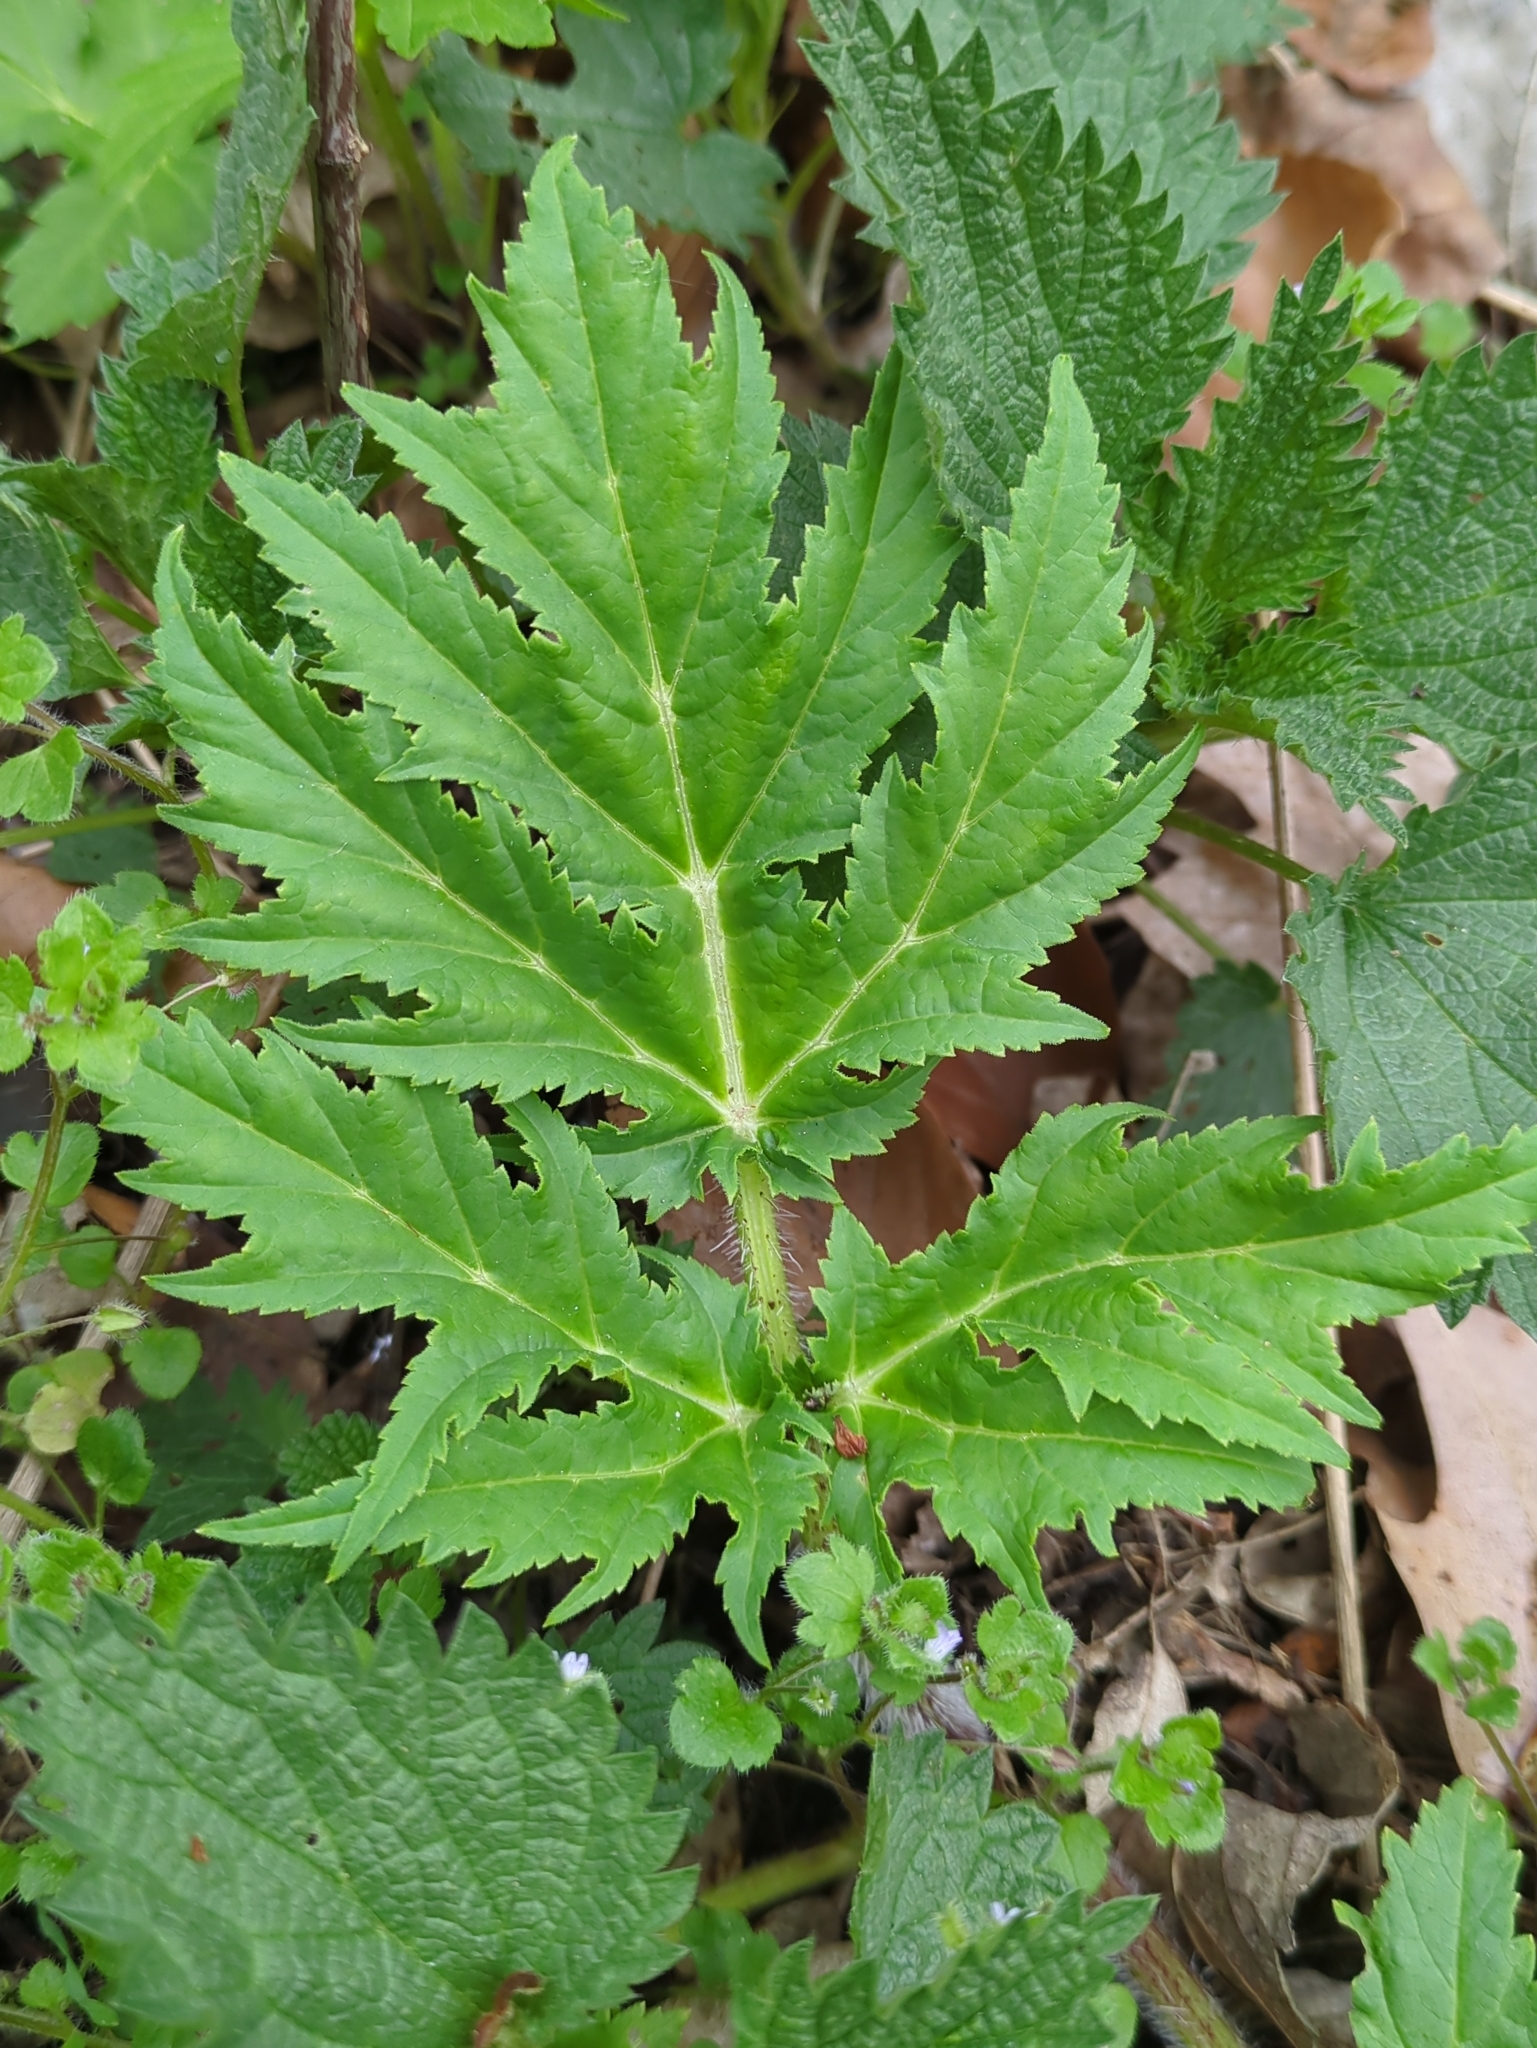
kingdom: Plantae
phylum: Tracheophyta
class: Magnoliopsida
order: Apiales
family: Apiaceae
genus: Heracleum
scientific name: Heracleum mantegazzianum
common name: Giant hogweed
